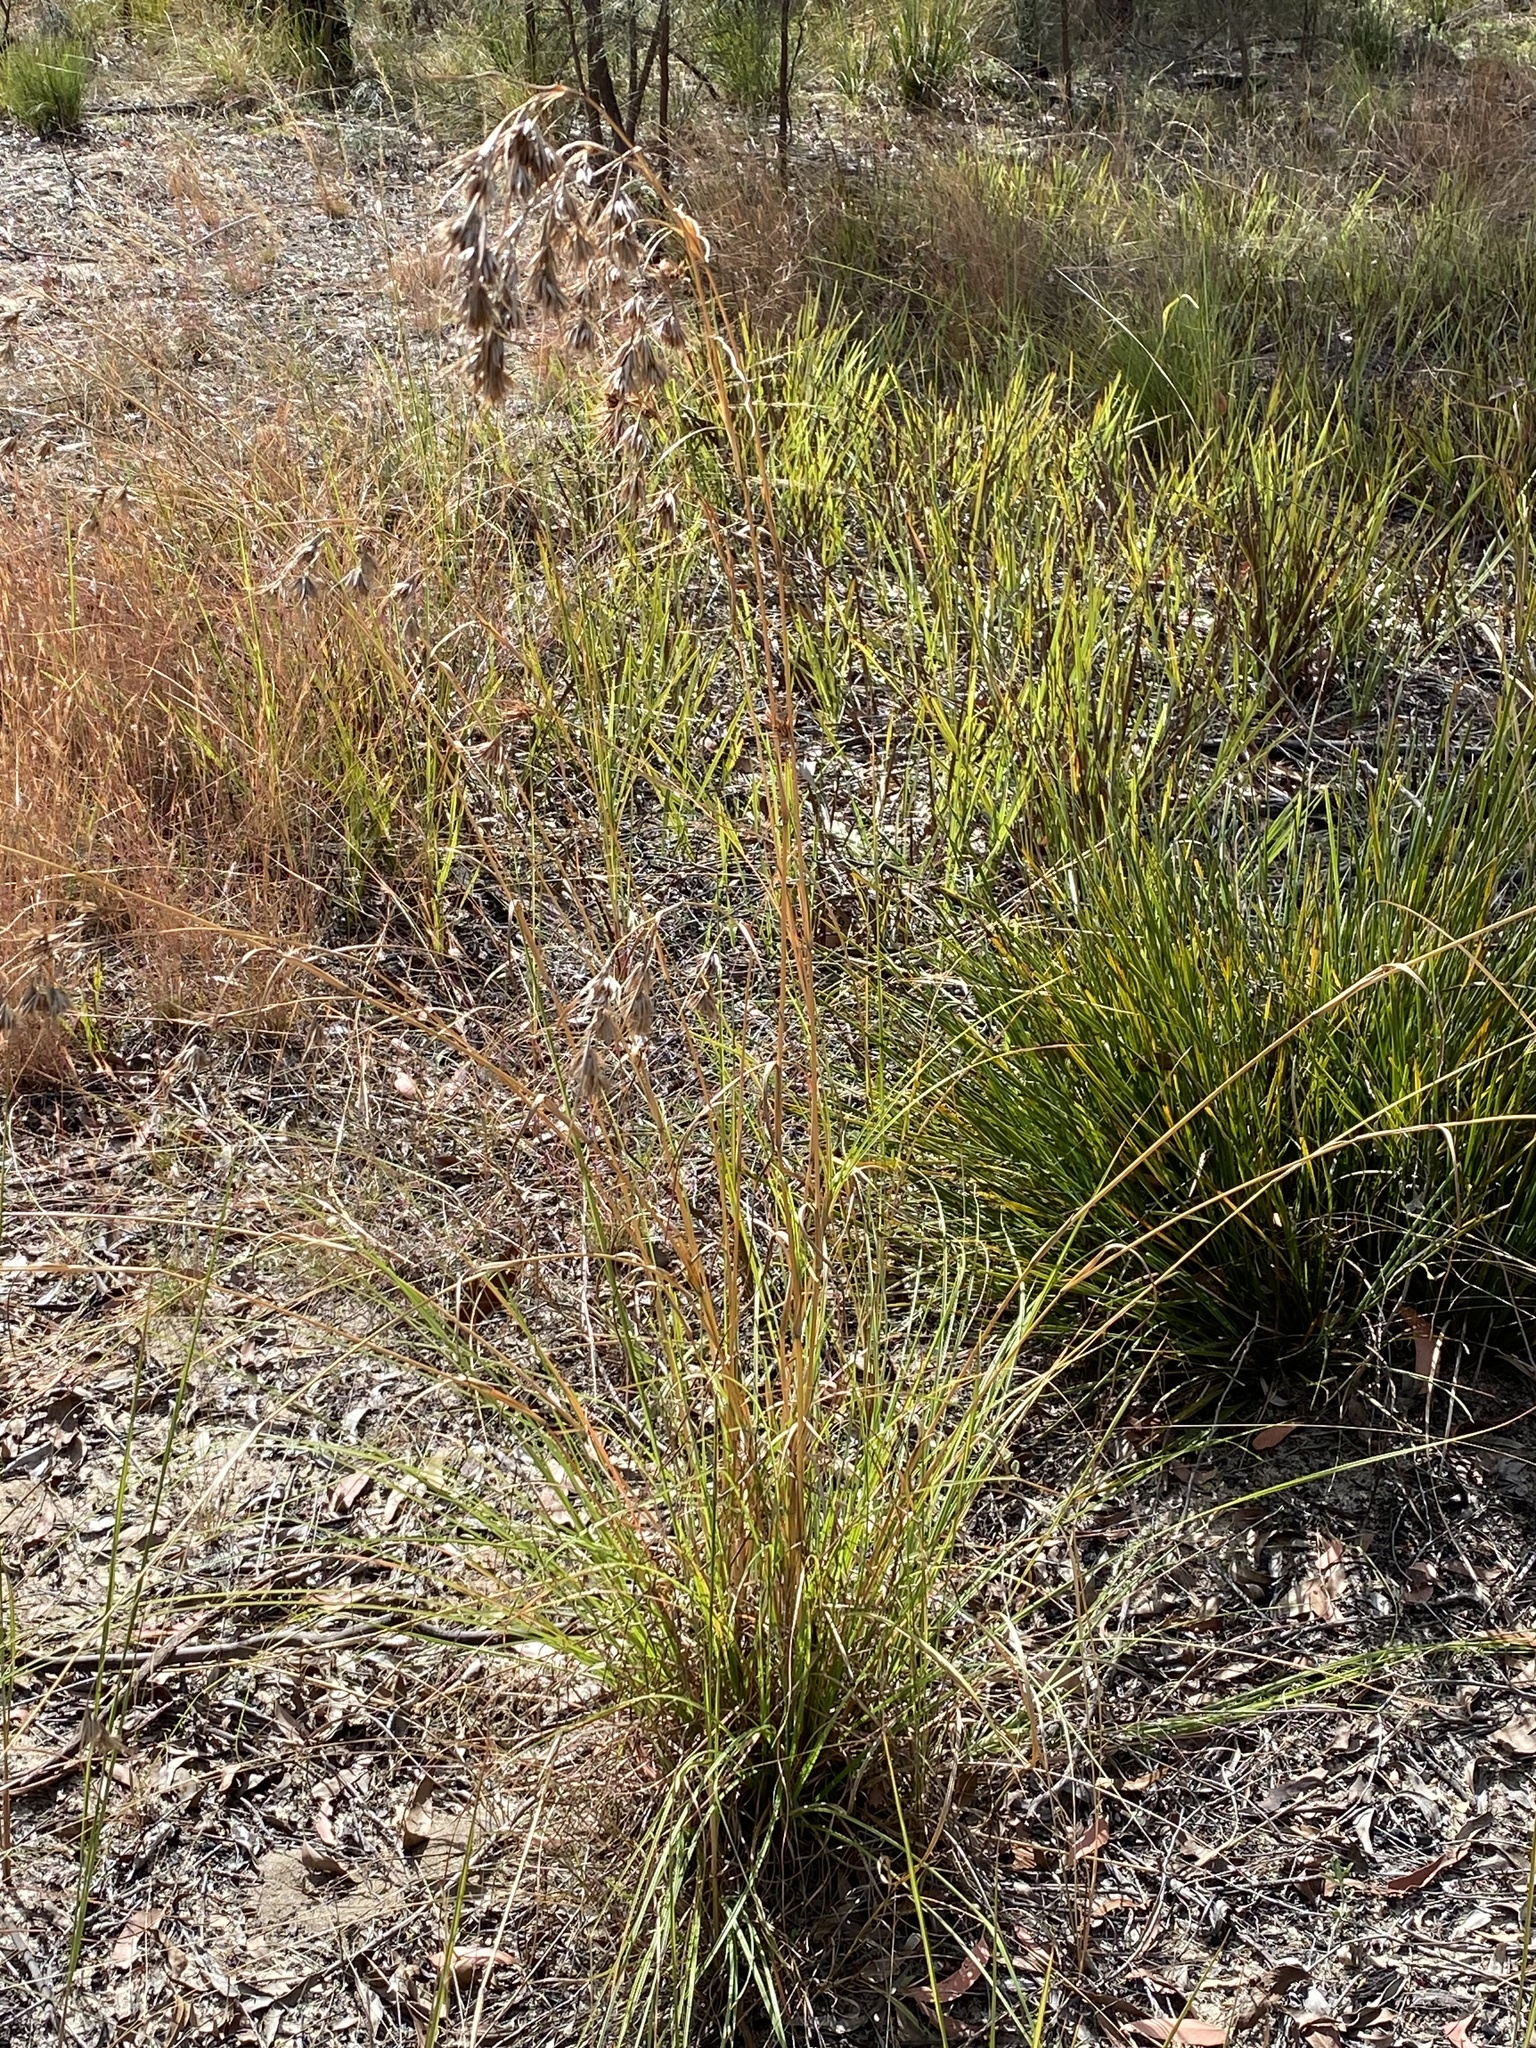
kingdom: Plantae
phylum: Tracheophyta
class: Liliopsida
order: Poales
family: Poaceae
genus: Themeda
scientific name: Themeda triandra
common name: Kangaroo grass
